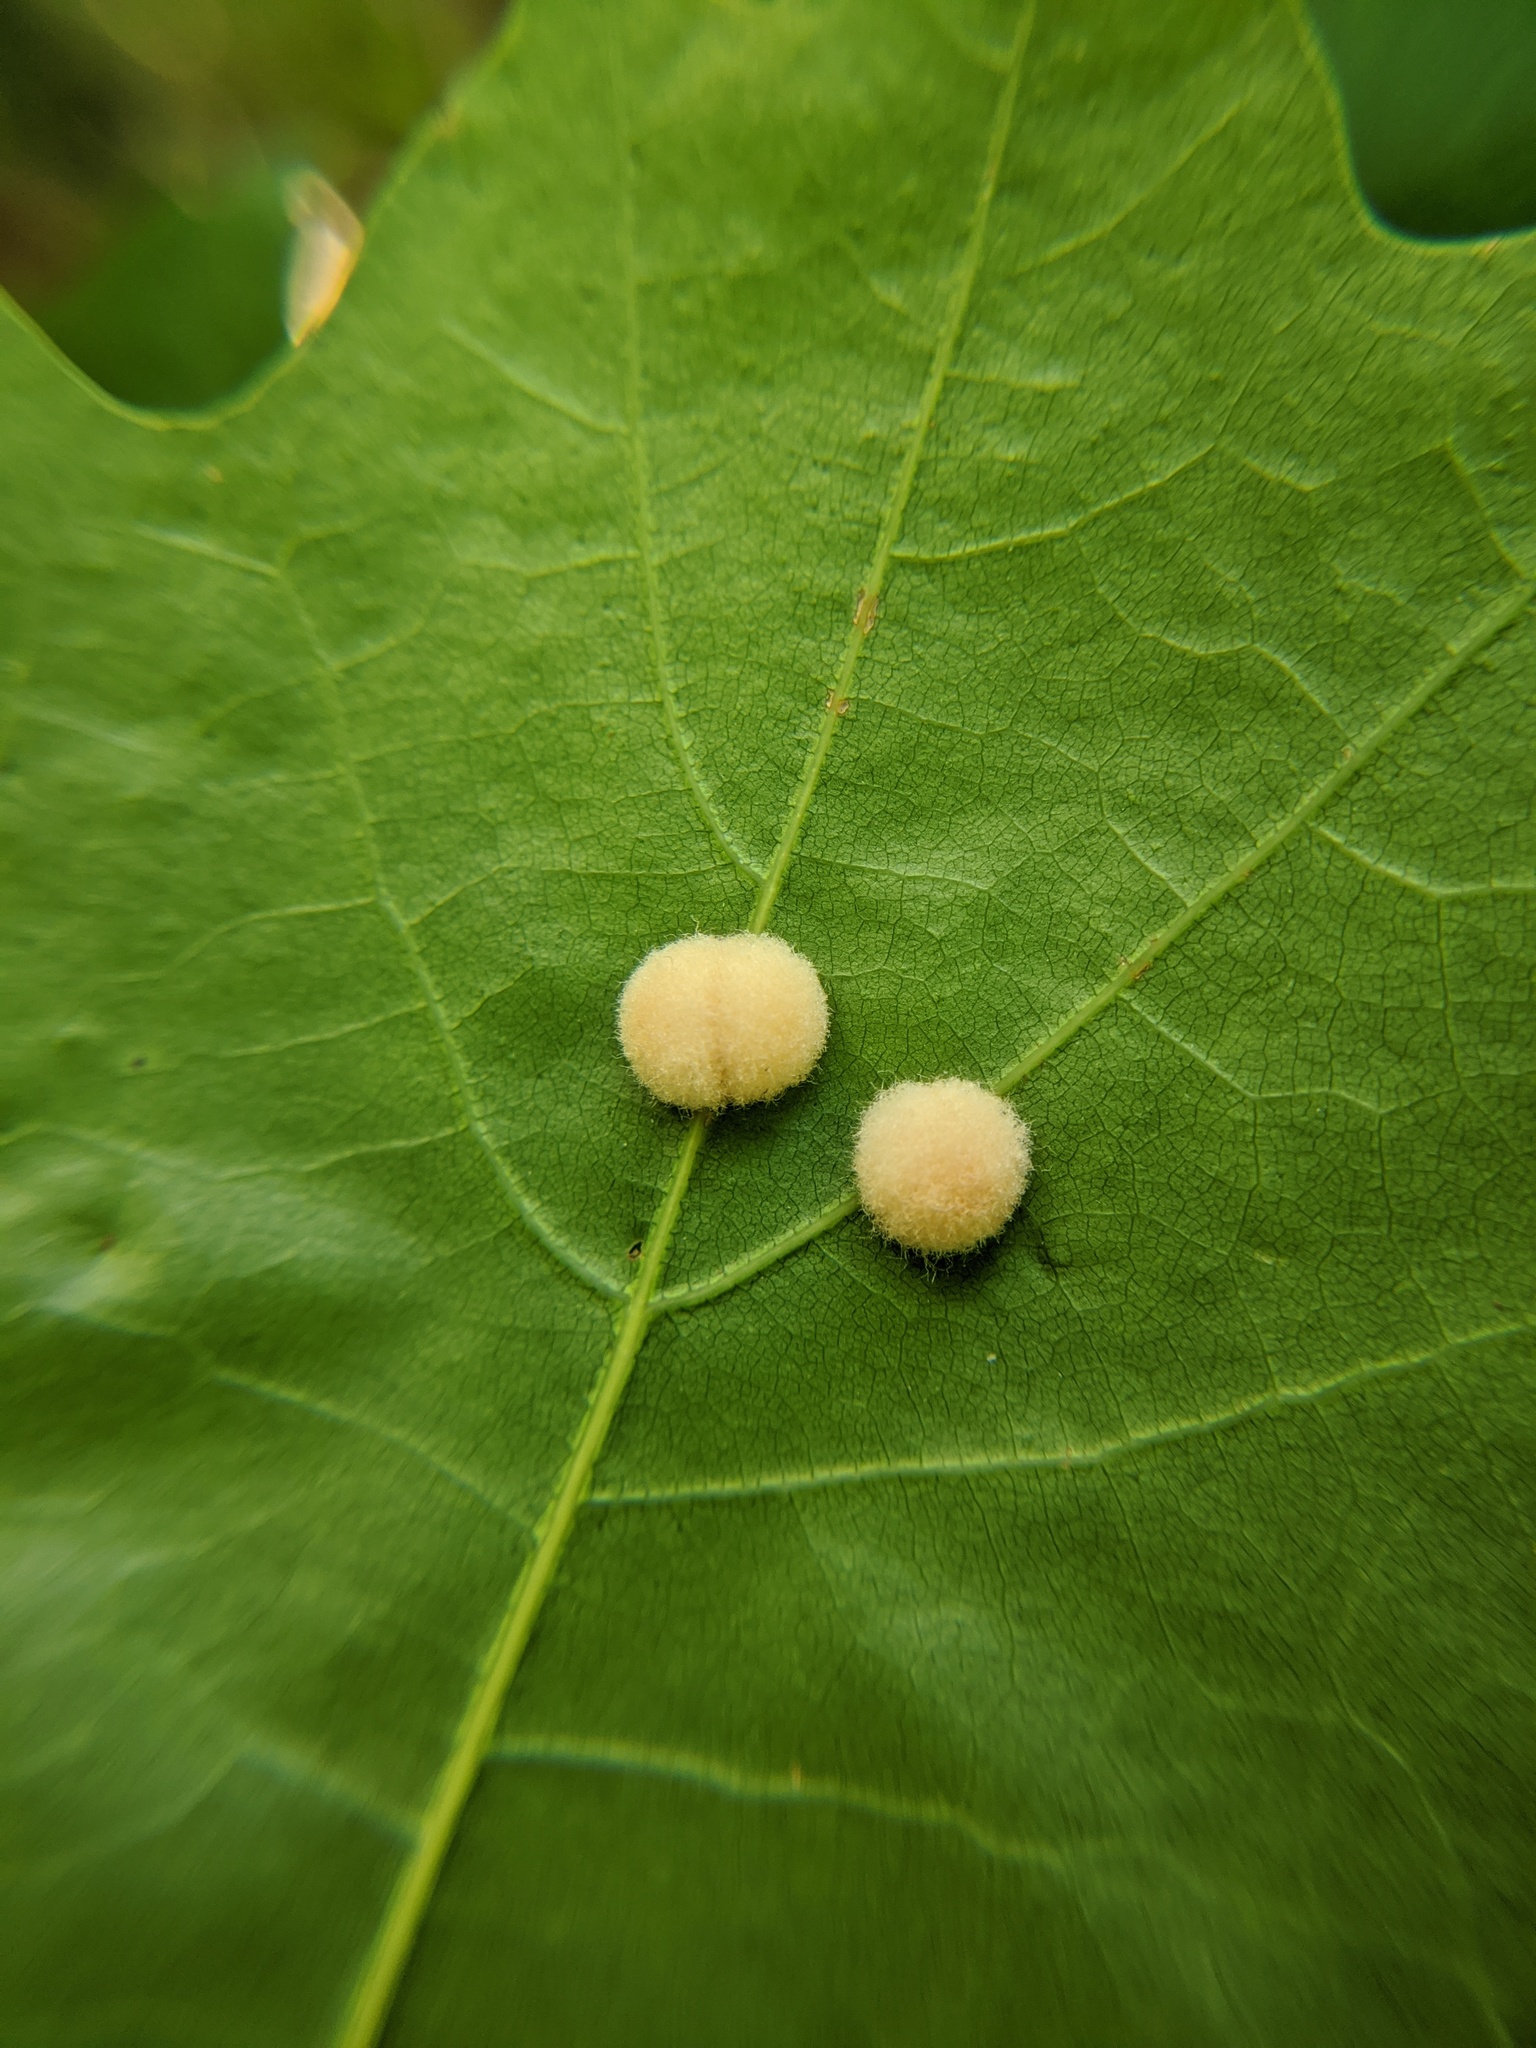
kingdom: Animalia
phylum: Arthropoda
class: Insecta
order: Hymenoptera
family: Cynipidae
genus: Callirhytis
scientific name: Callirhytis
